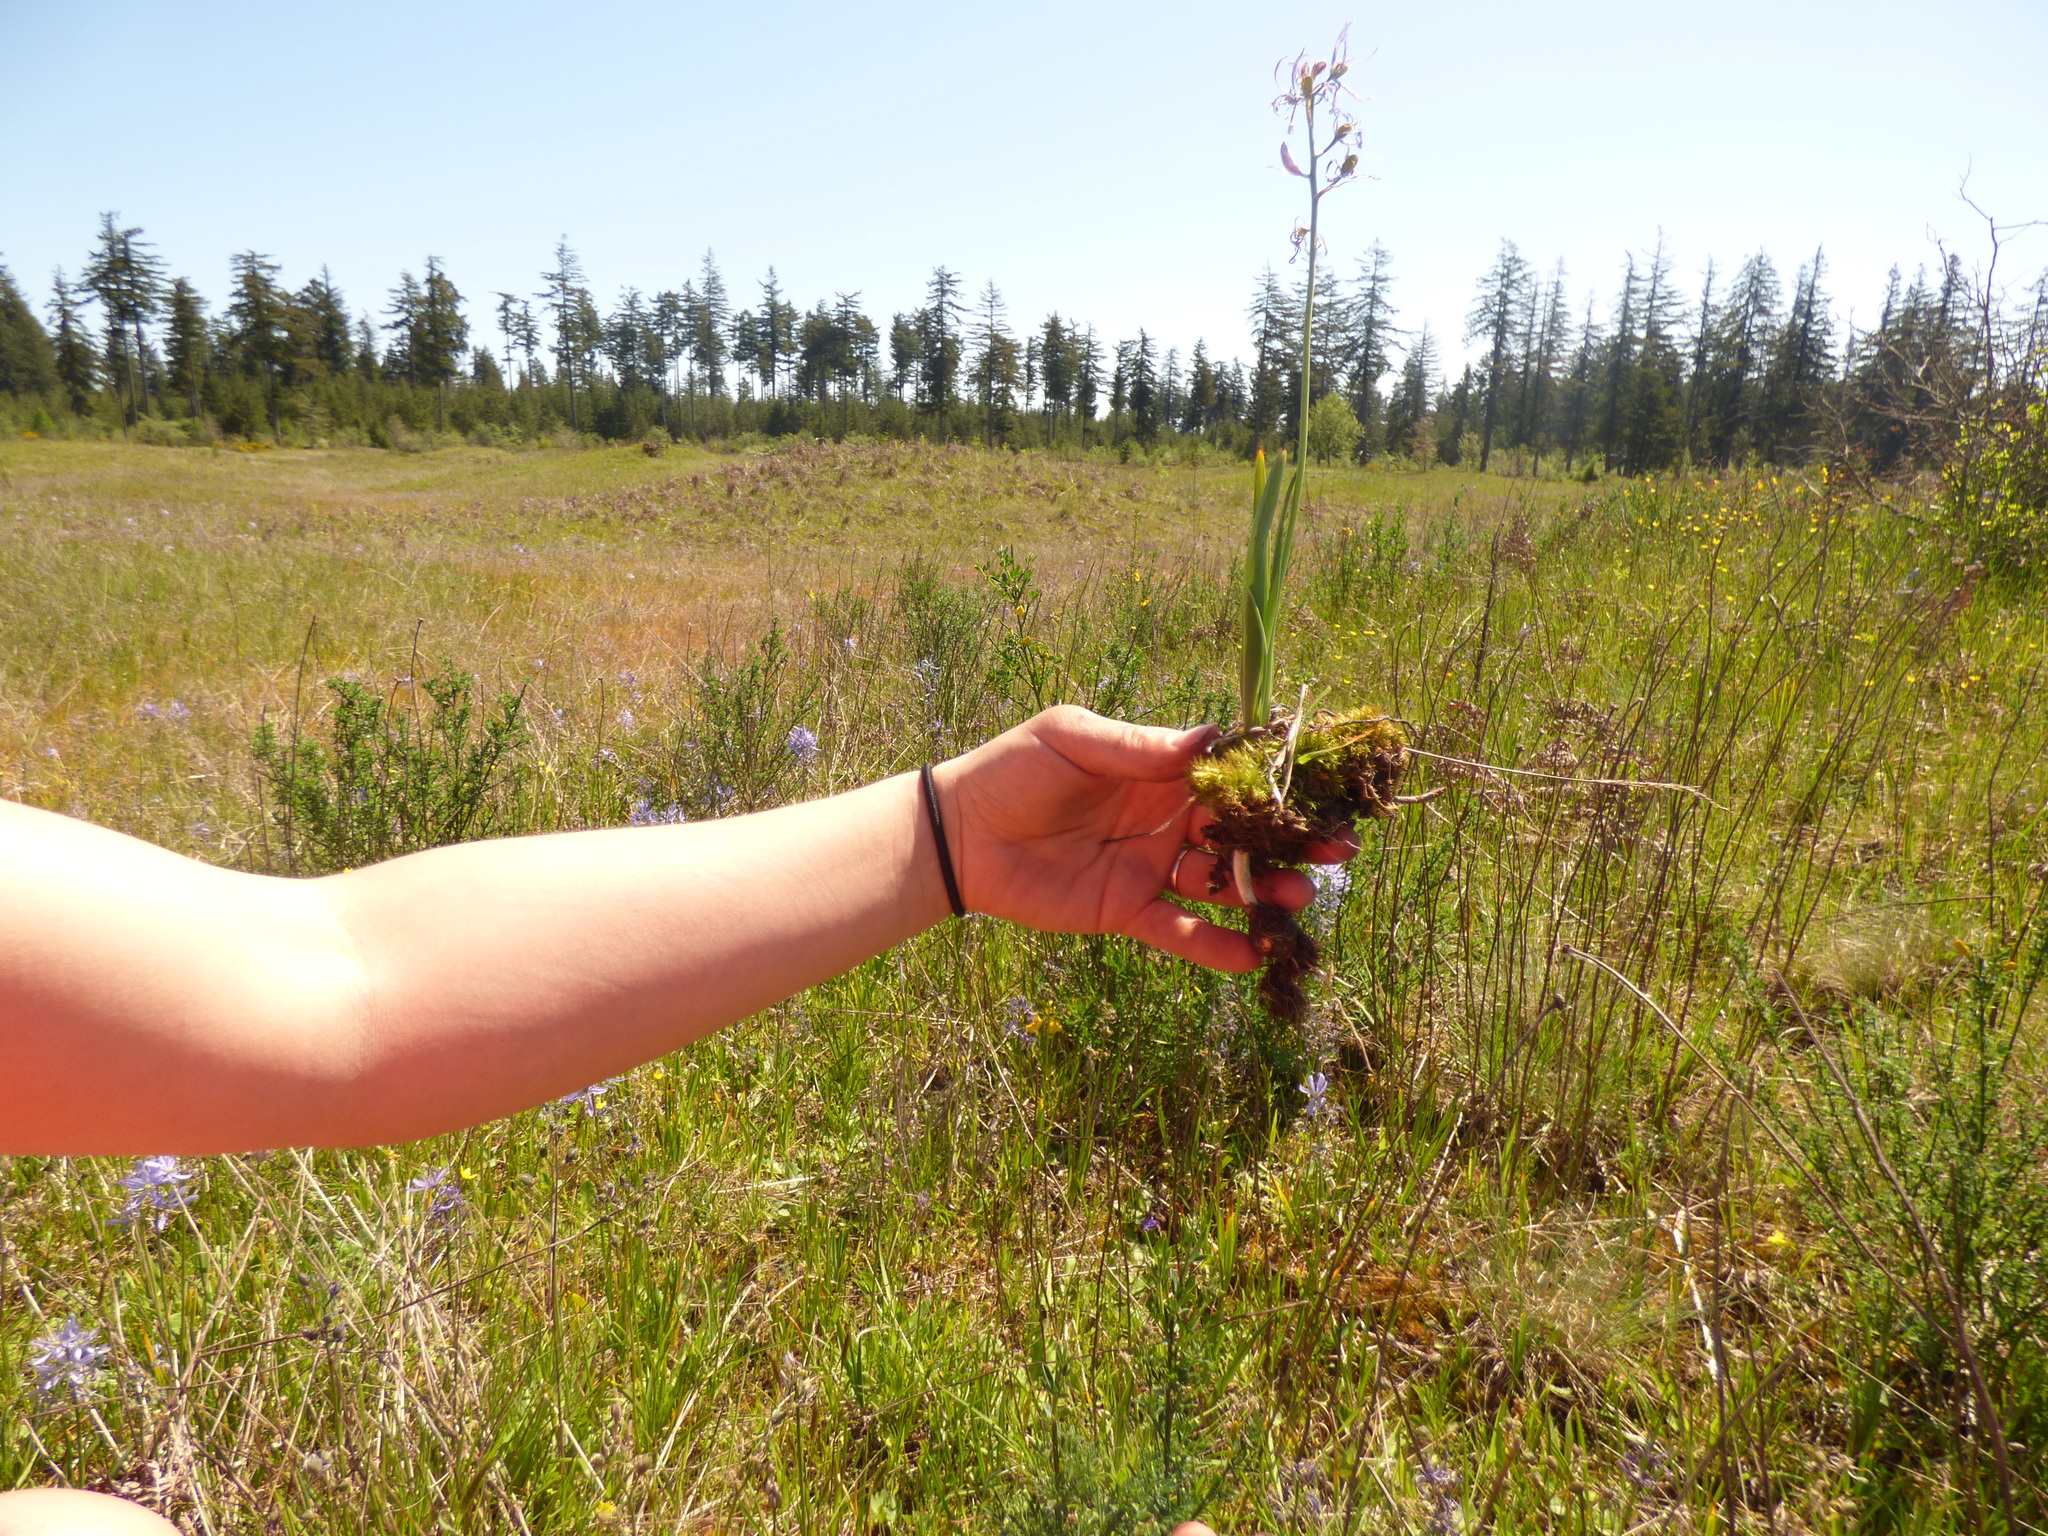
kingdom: Plantae
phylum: Tracheophyta
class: Liliopsida
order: Asparagales
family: Asparagaceae
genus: Camassia
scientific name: Camassia quamash
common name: Common camas
